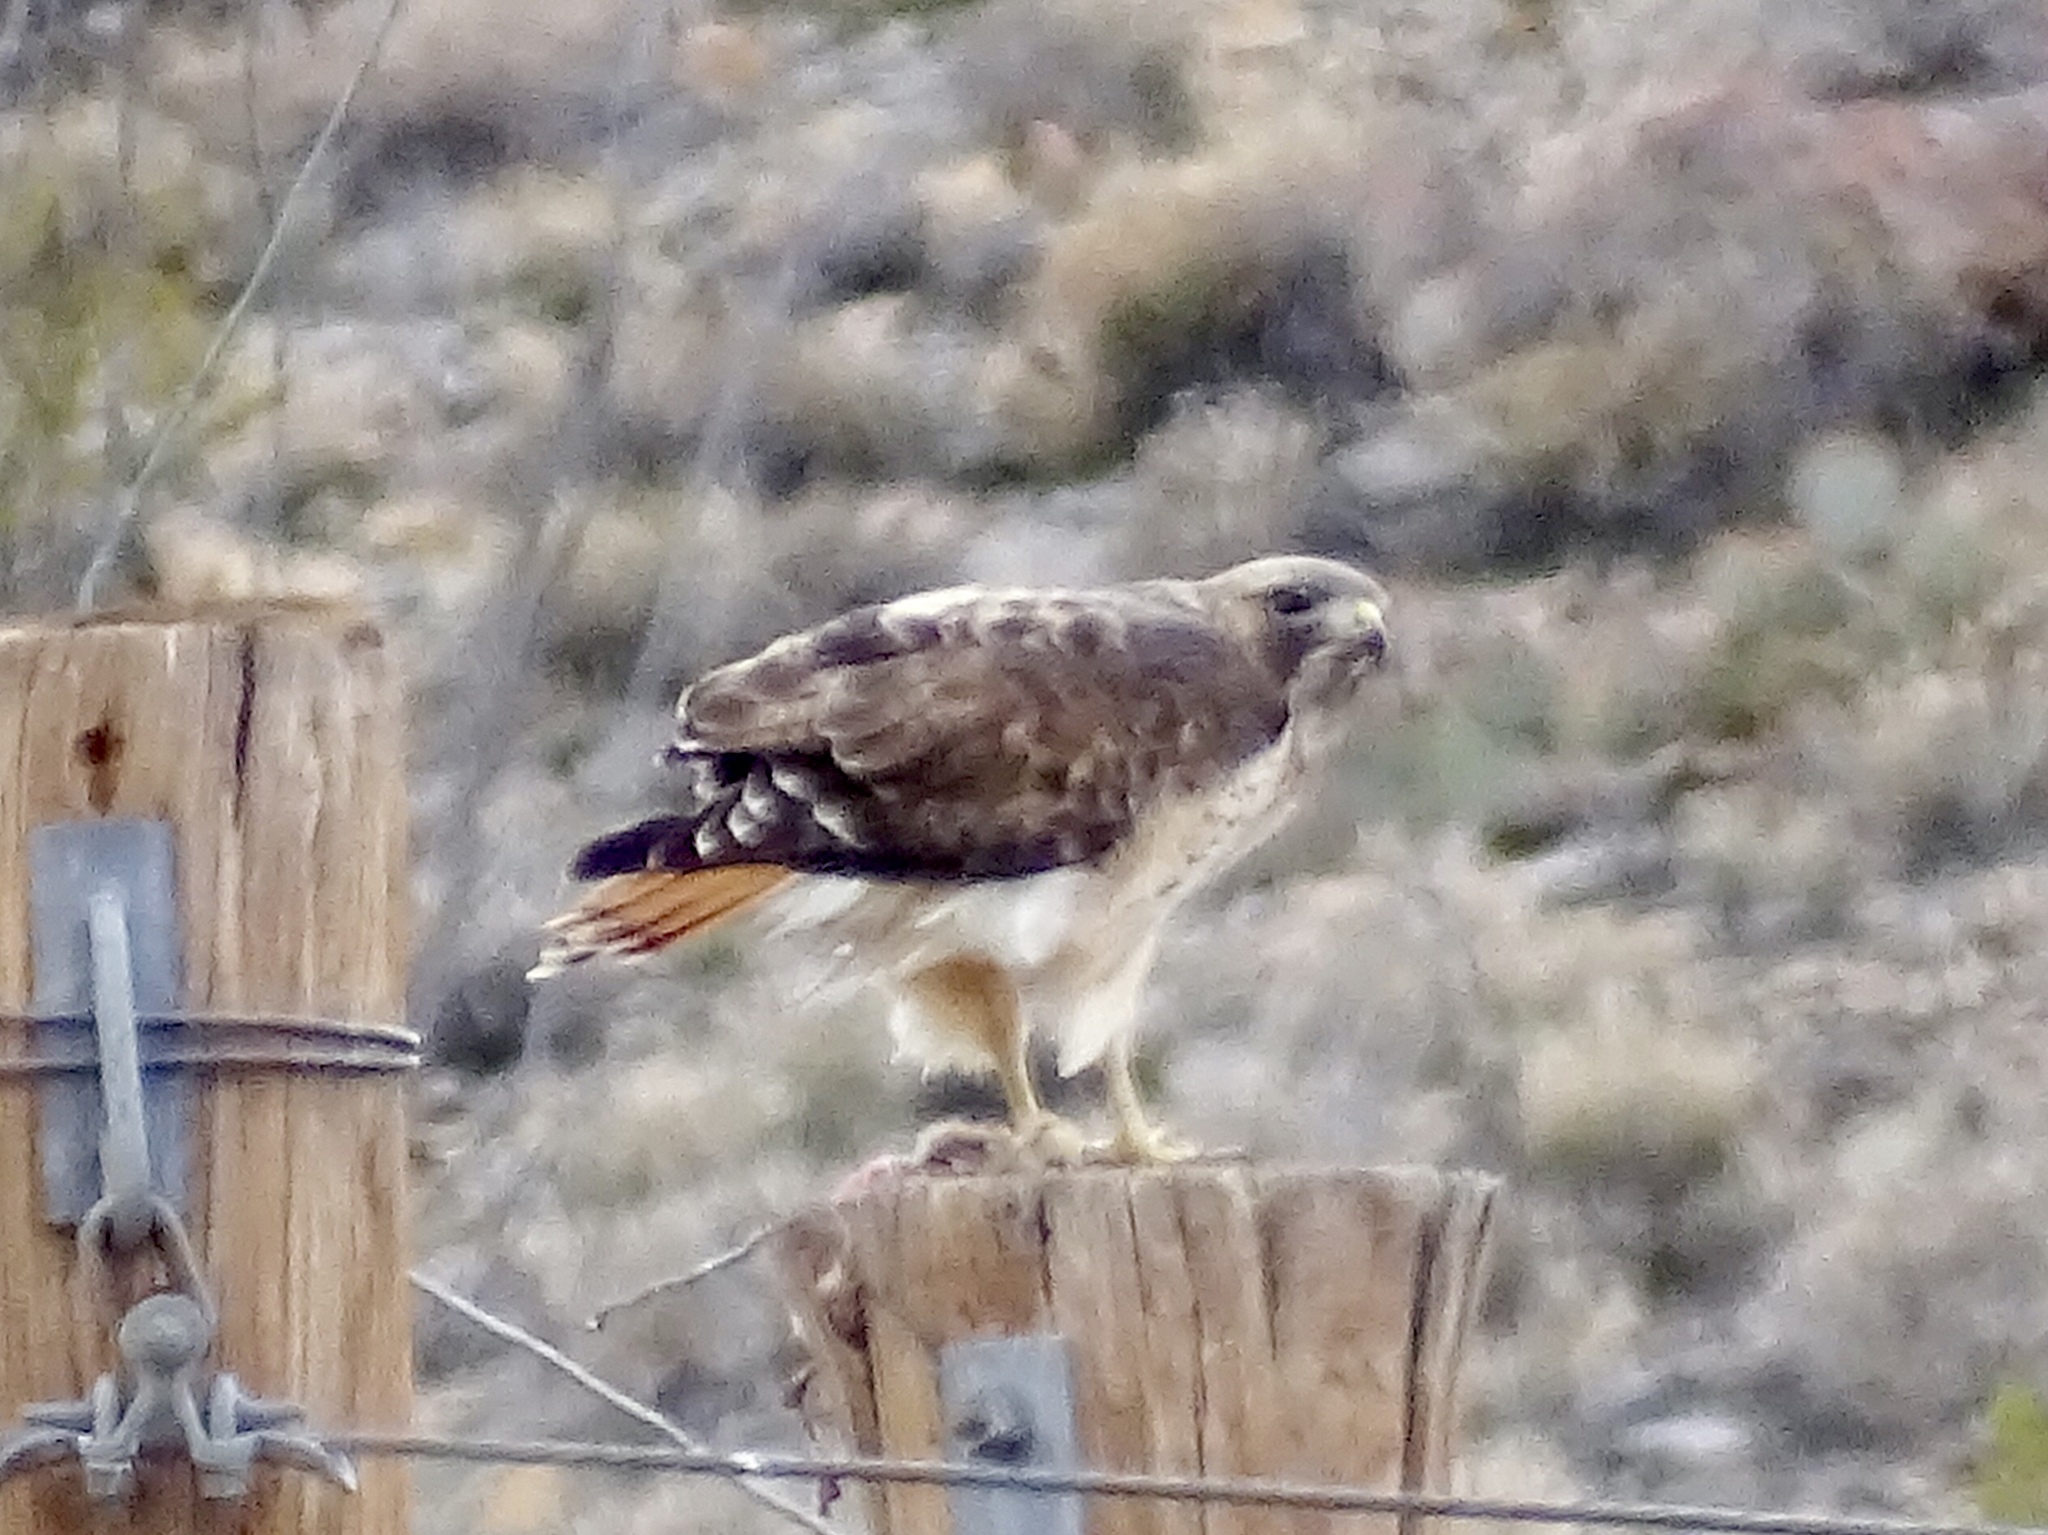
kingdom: Animalia
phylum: Chordata
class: Aves
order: Accipitriformes
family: Accipitridae
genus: Buteo
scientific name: Buteo jamaicensis
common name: Red-tailed hawk
